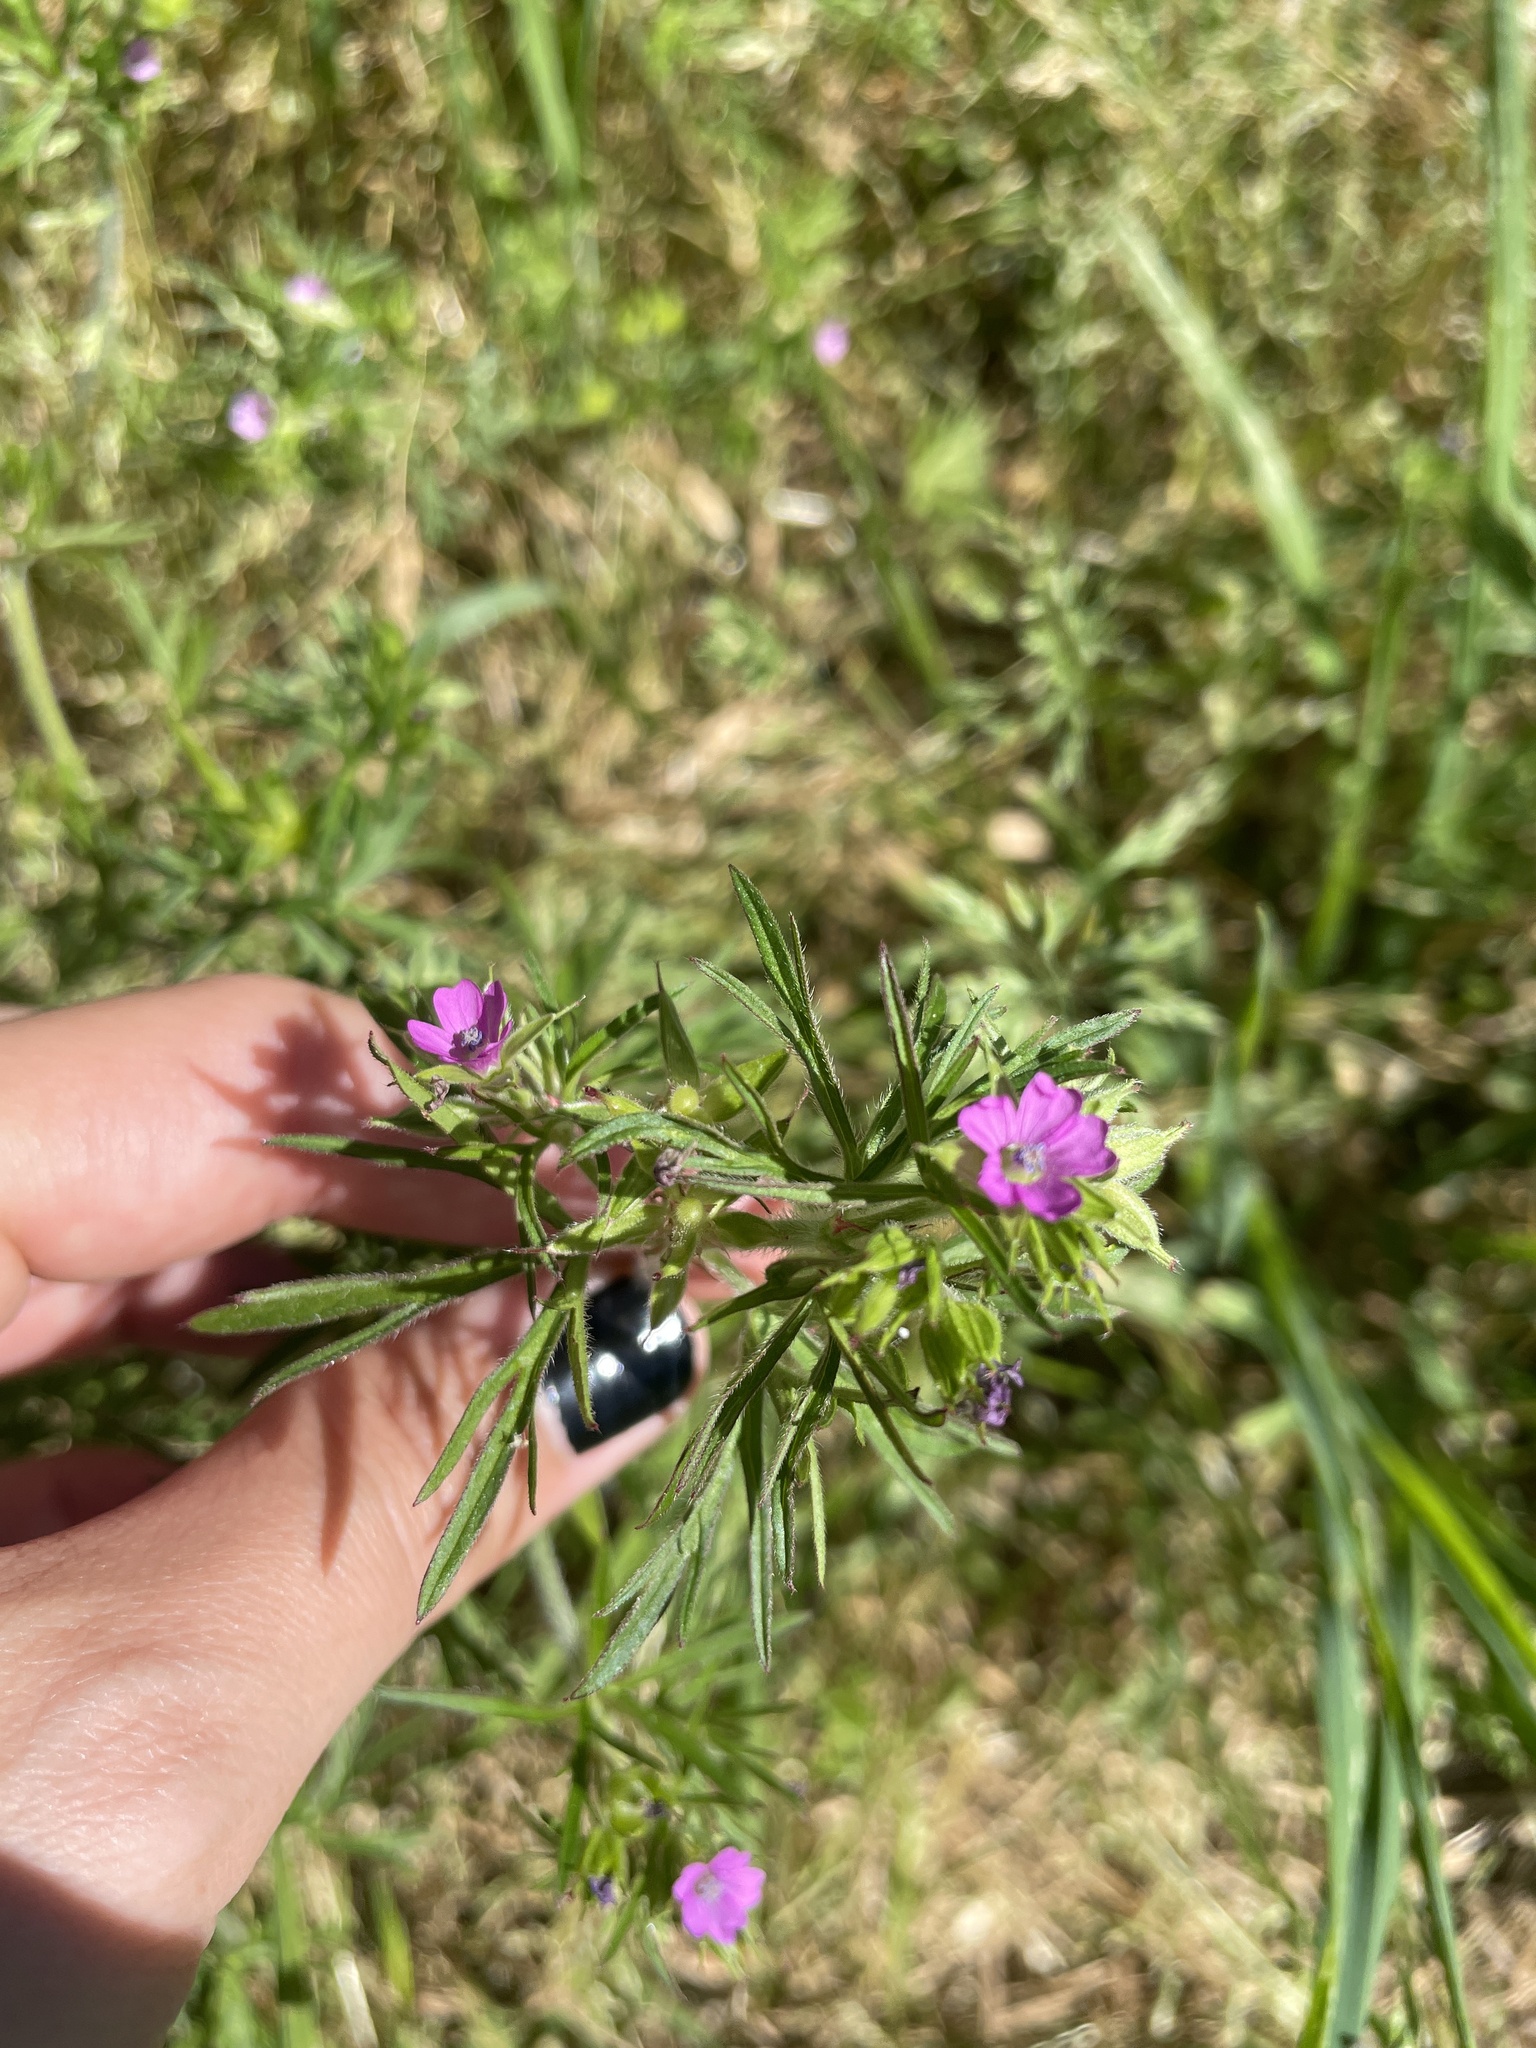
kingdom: Plantae
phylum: Tracheophyta
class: Magnoliopsida
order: Geraniales
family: Geraniaceae
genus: Geranium
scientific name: Geranium dissectum
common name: Cut-leaved crane's-bill
